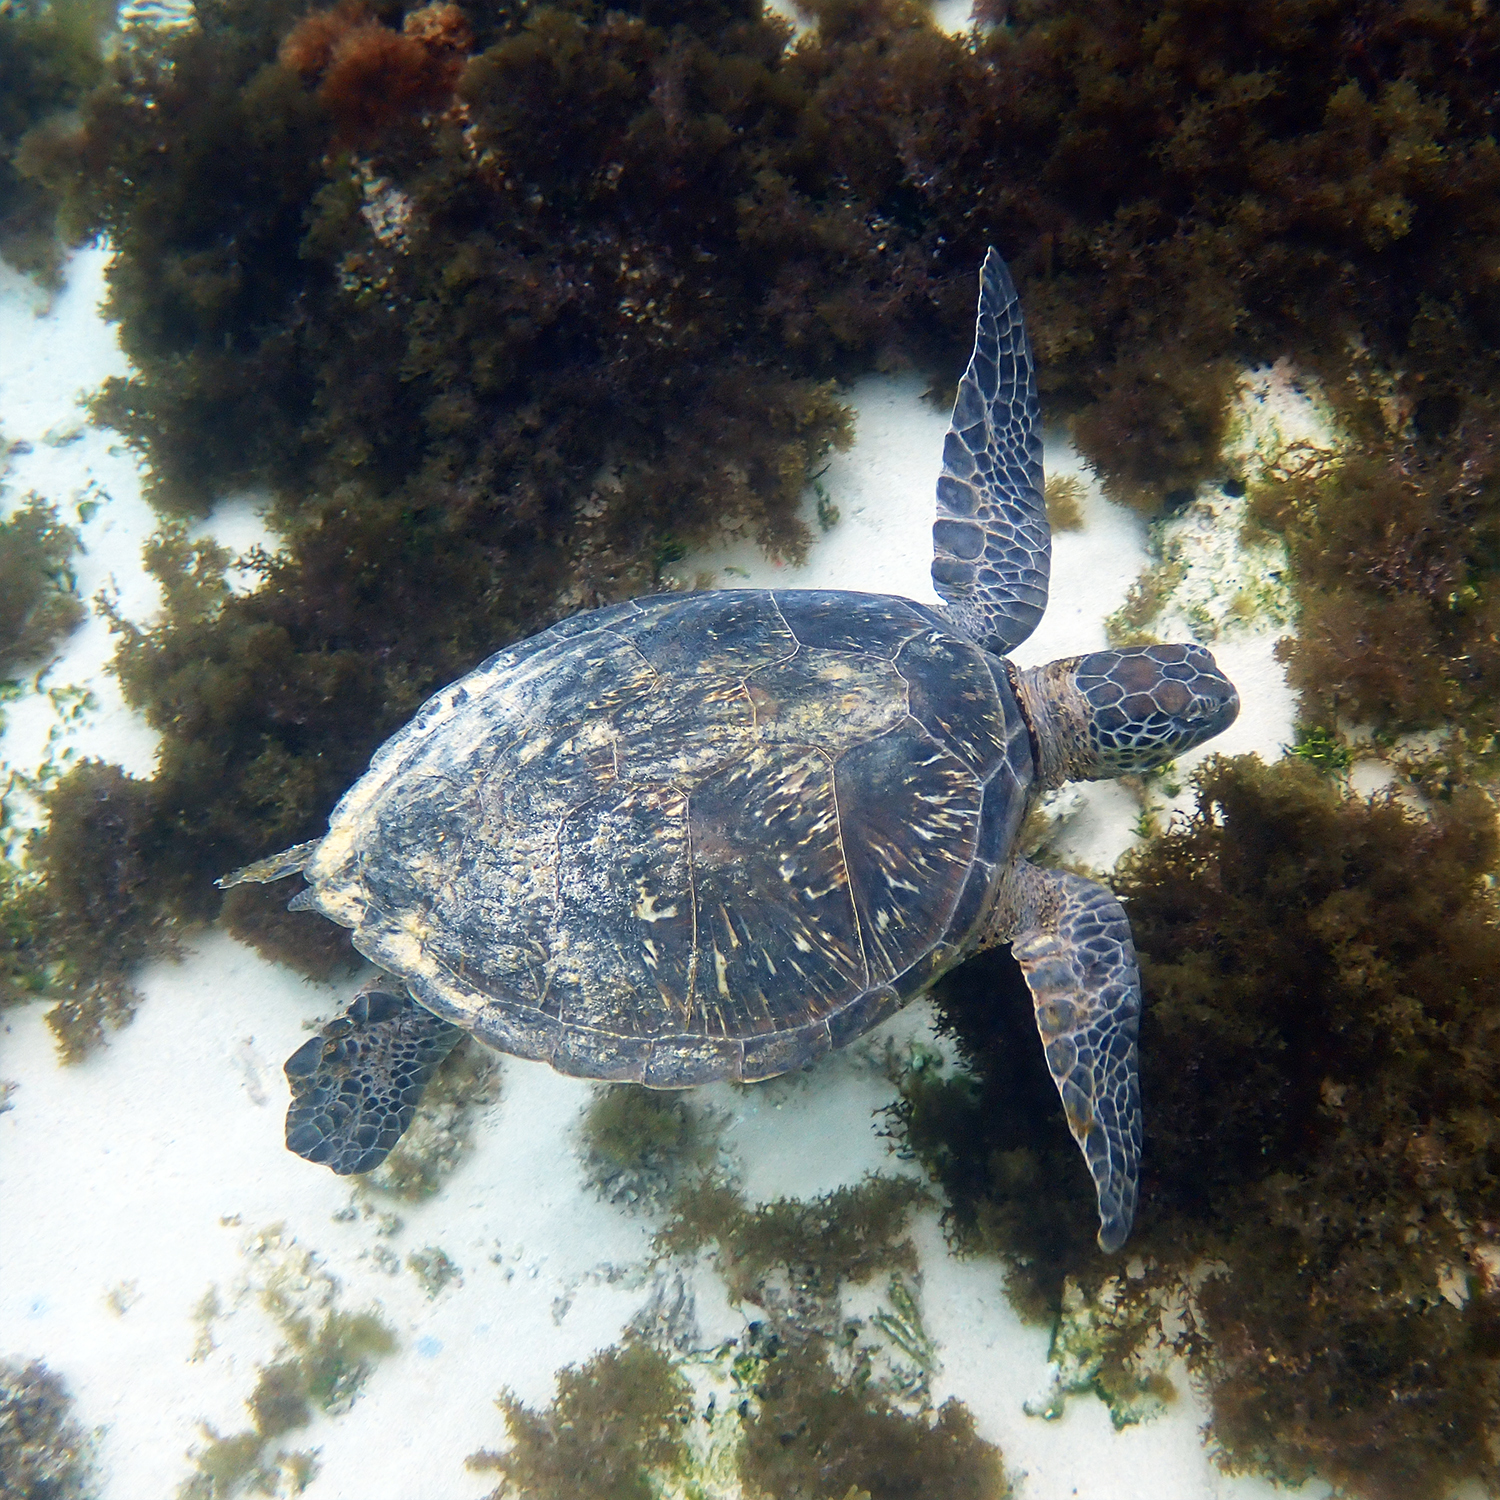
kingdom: Animalia
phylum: Chordata
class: Testudines
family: Cheloniidae
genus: Chelonia
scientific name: Chelonia mydas
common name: Green turtle
